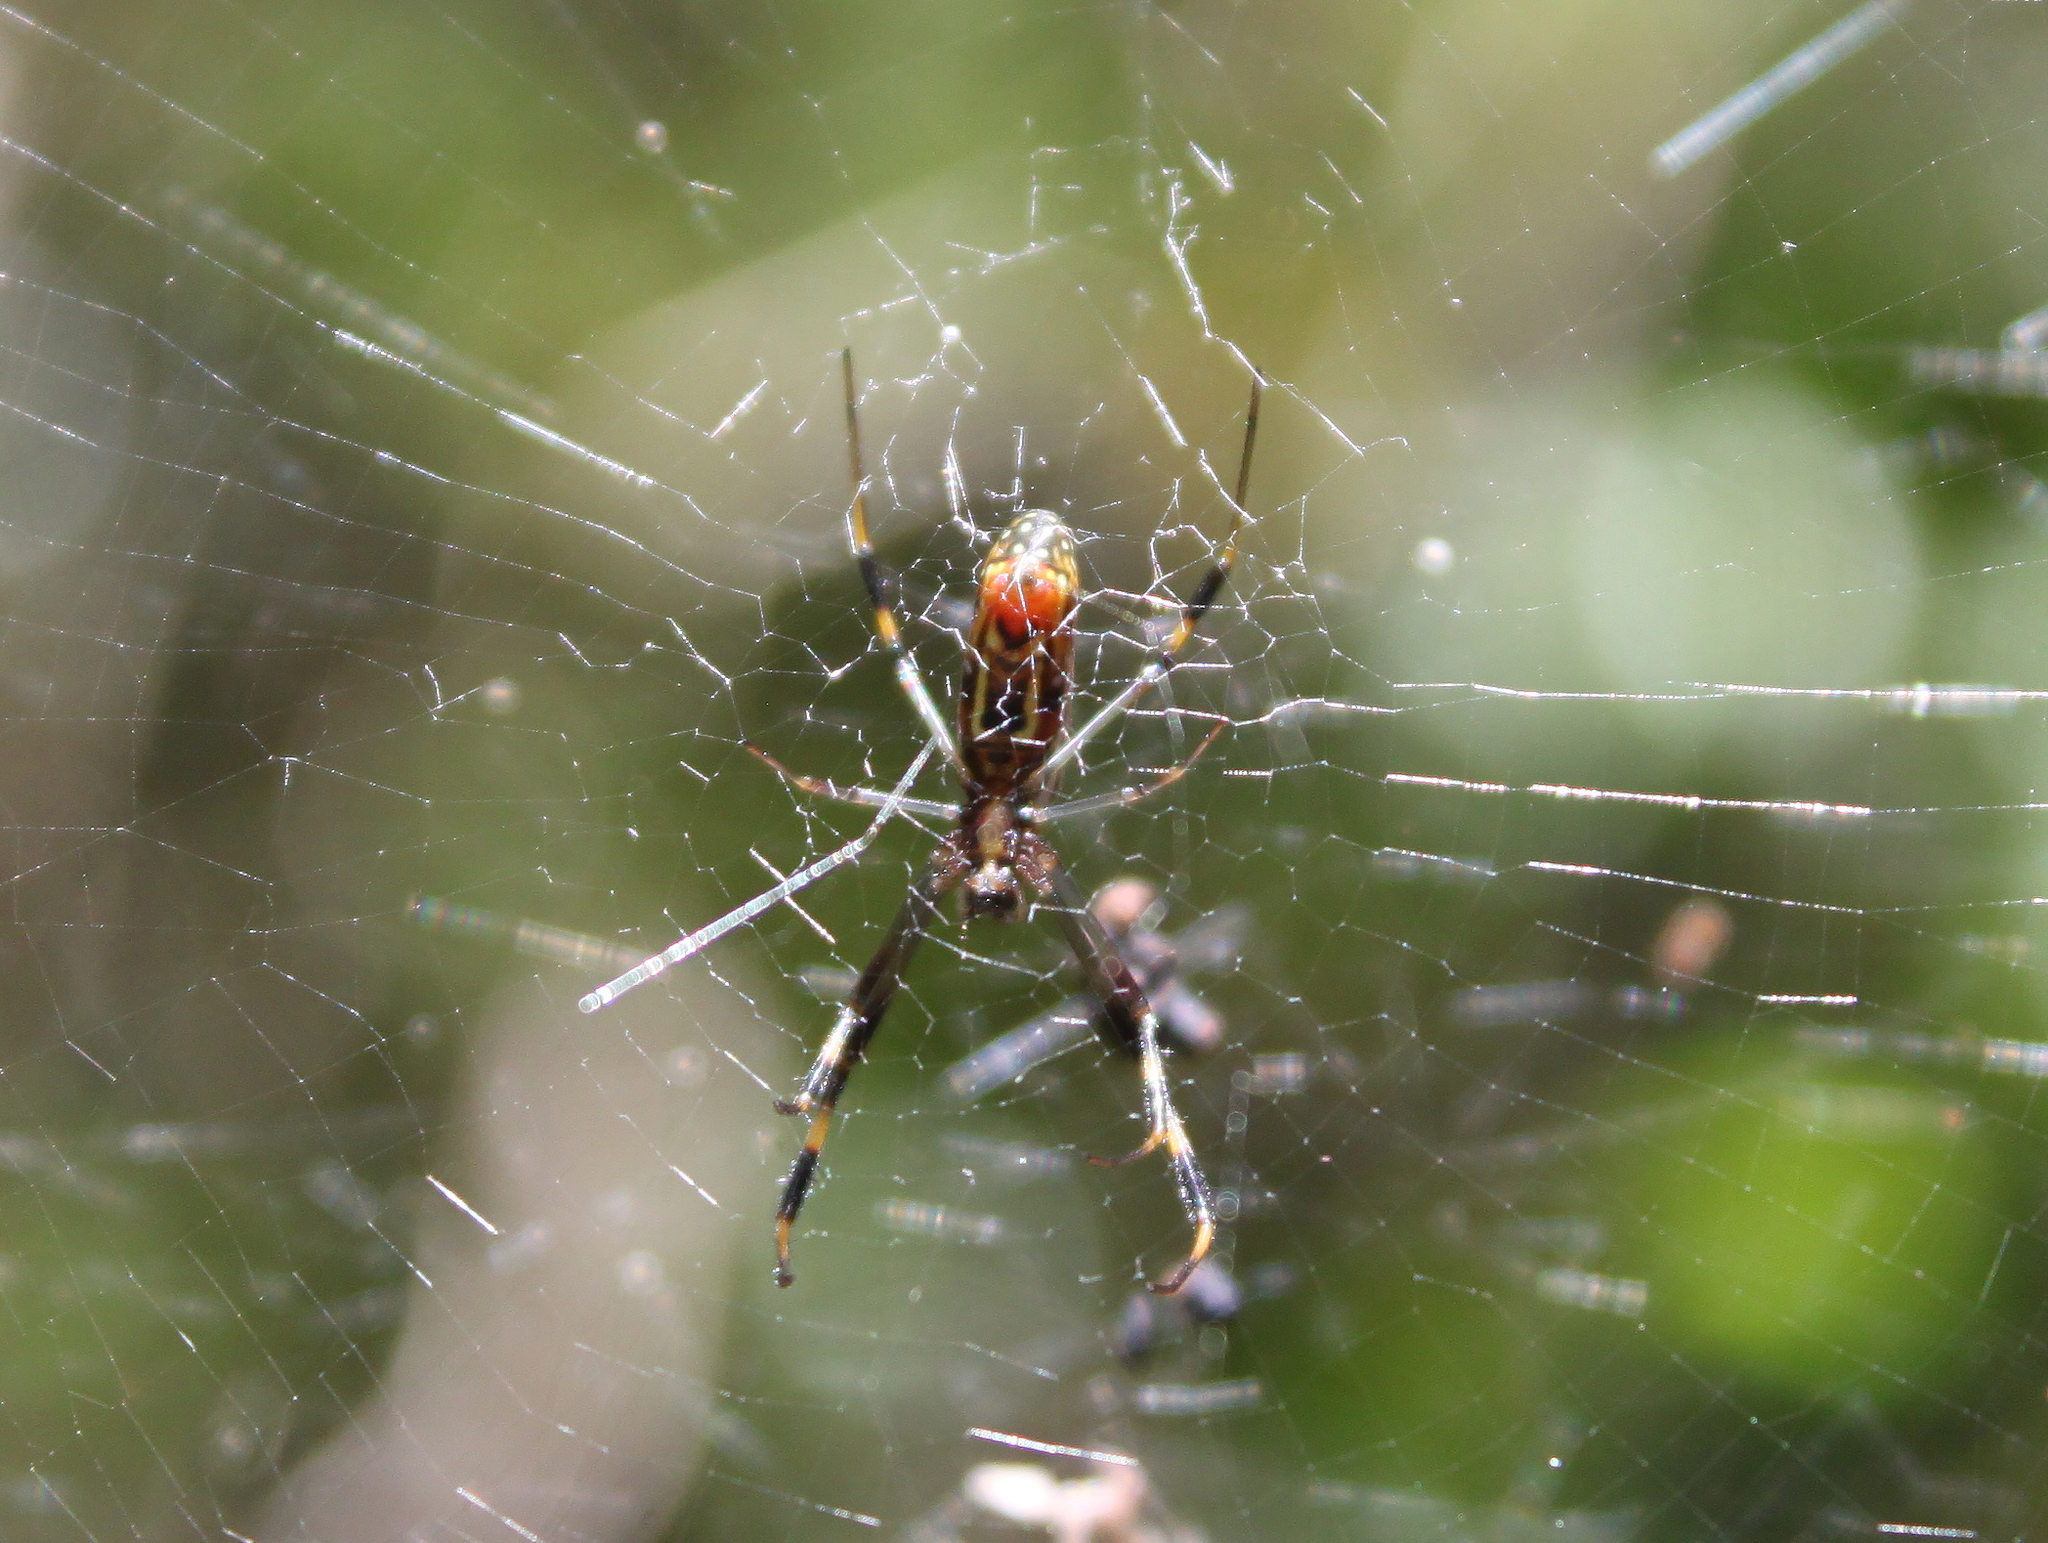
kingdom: Animalia
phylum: Arthropoda
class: Arachnida
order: Araneae
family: Araneidae
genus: Trichonephila
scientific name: Trichonephila clavipes
